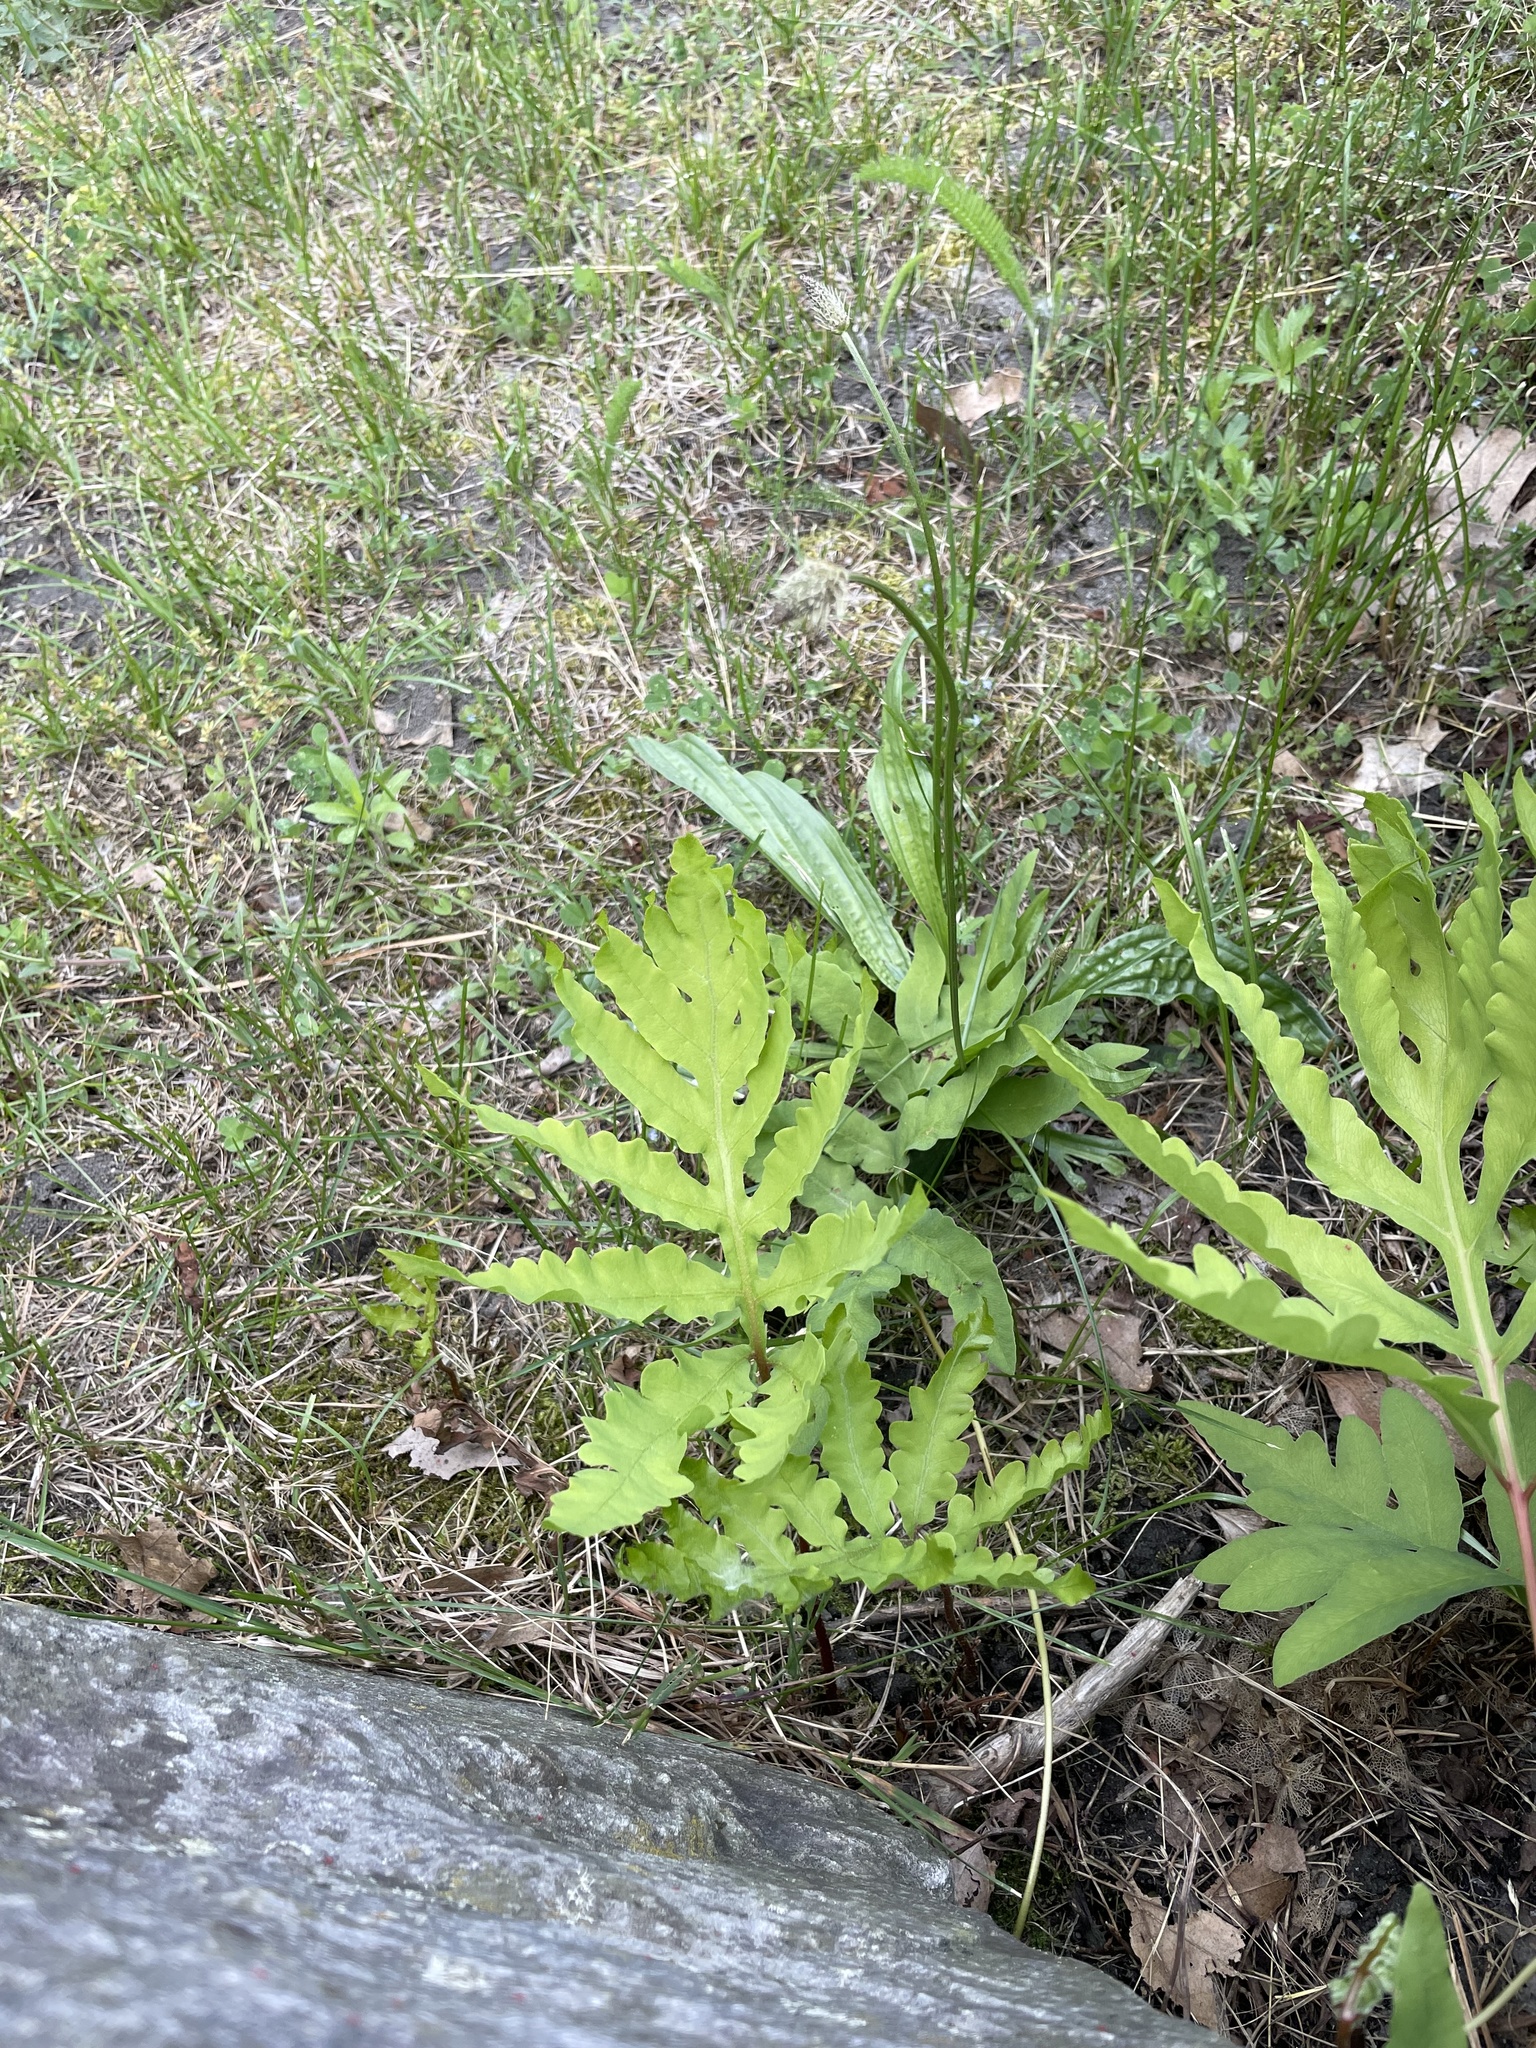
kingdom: Plantae
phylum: Tracheophyta
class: Polypodiopsida
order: Polypodiales
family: Onocleaceae
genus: Onoclea
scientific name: Onoclea sensibilis
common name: Sensitive fern
